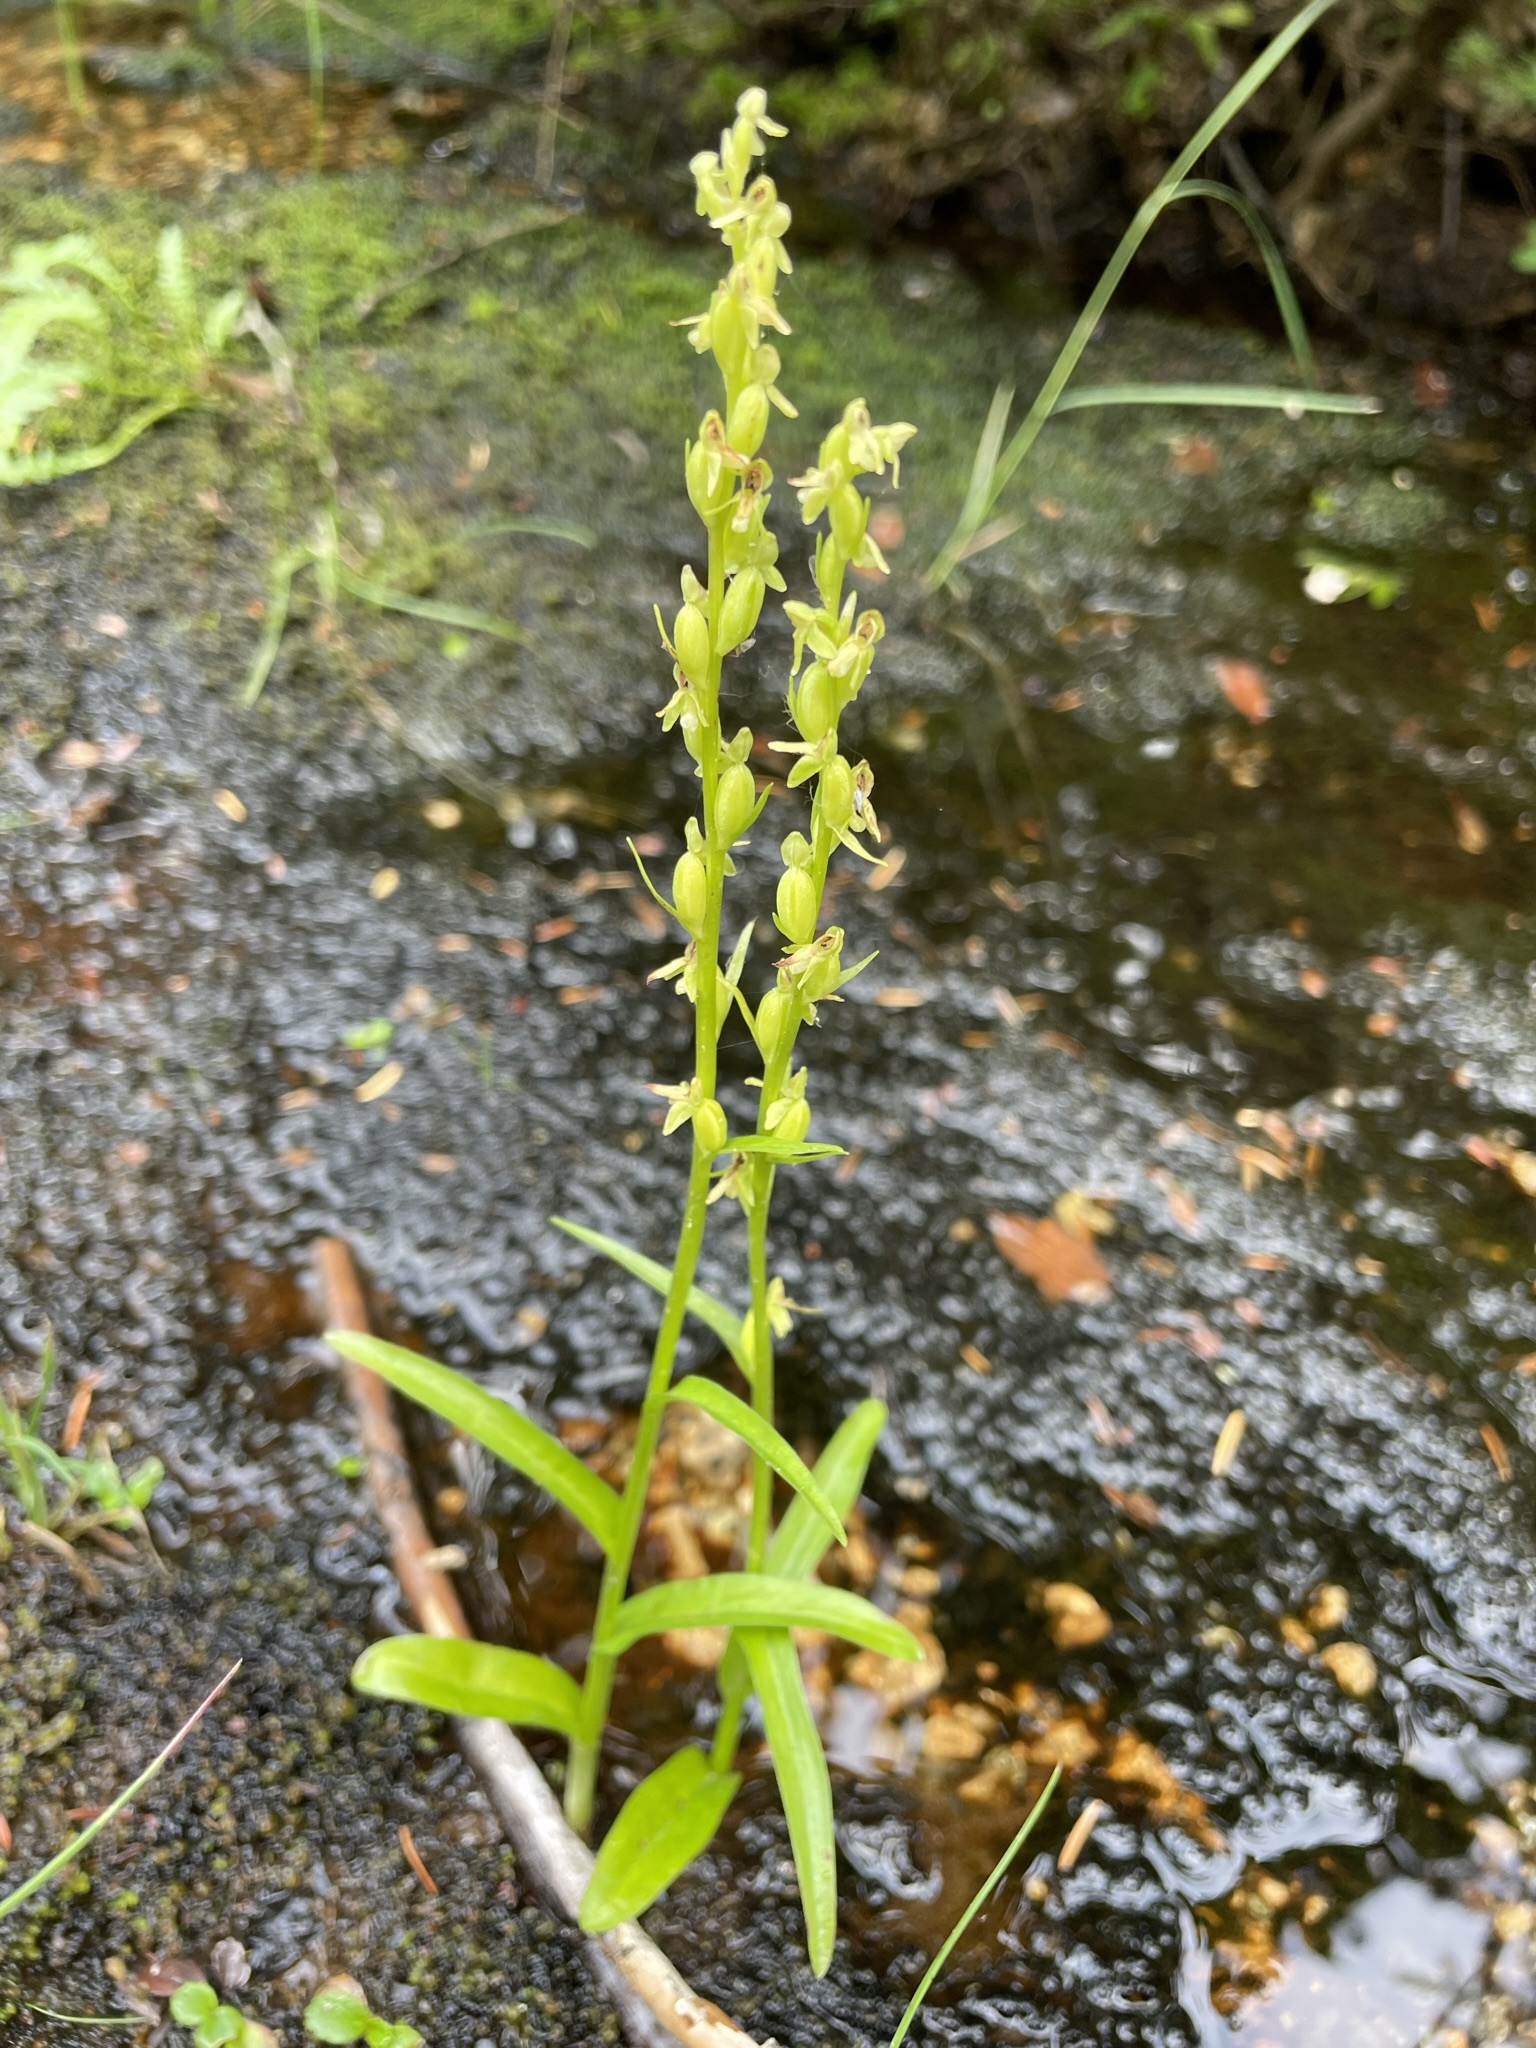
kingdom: Plantae
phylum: Tracheophyta
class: Liliopsida
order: Asparagales
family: Orchidaceae
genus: Platanthera
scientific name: Platanthera stricta
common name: Slender bog orchid
